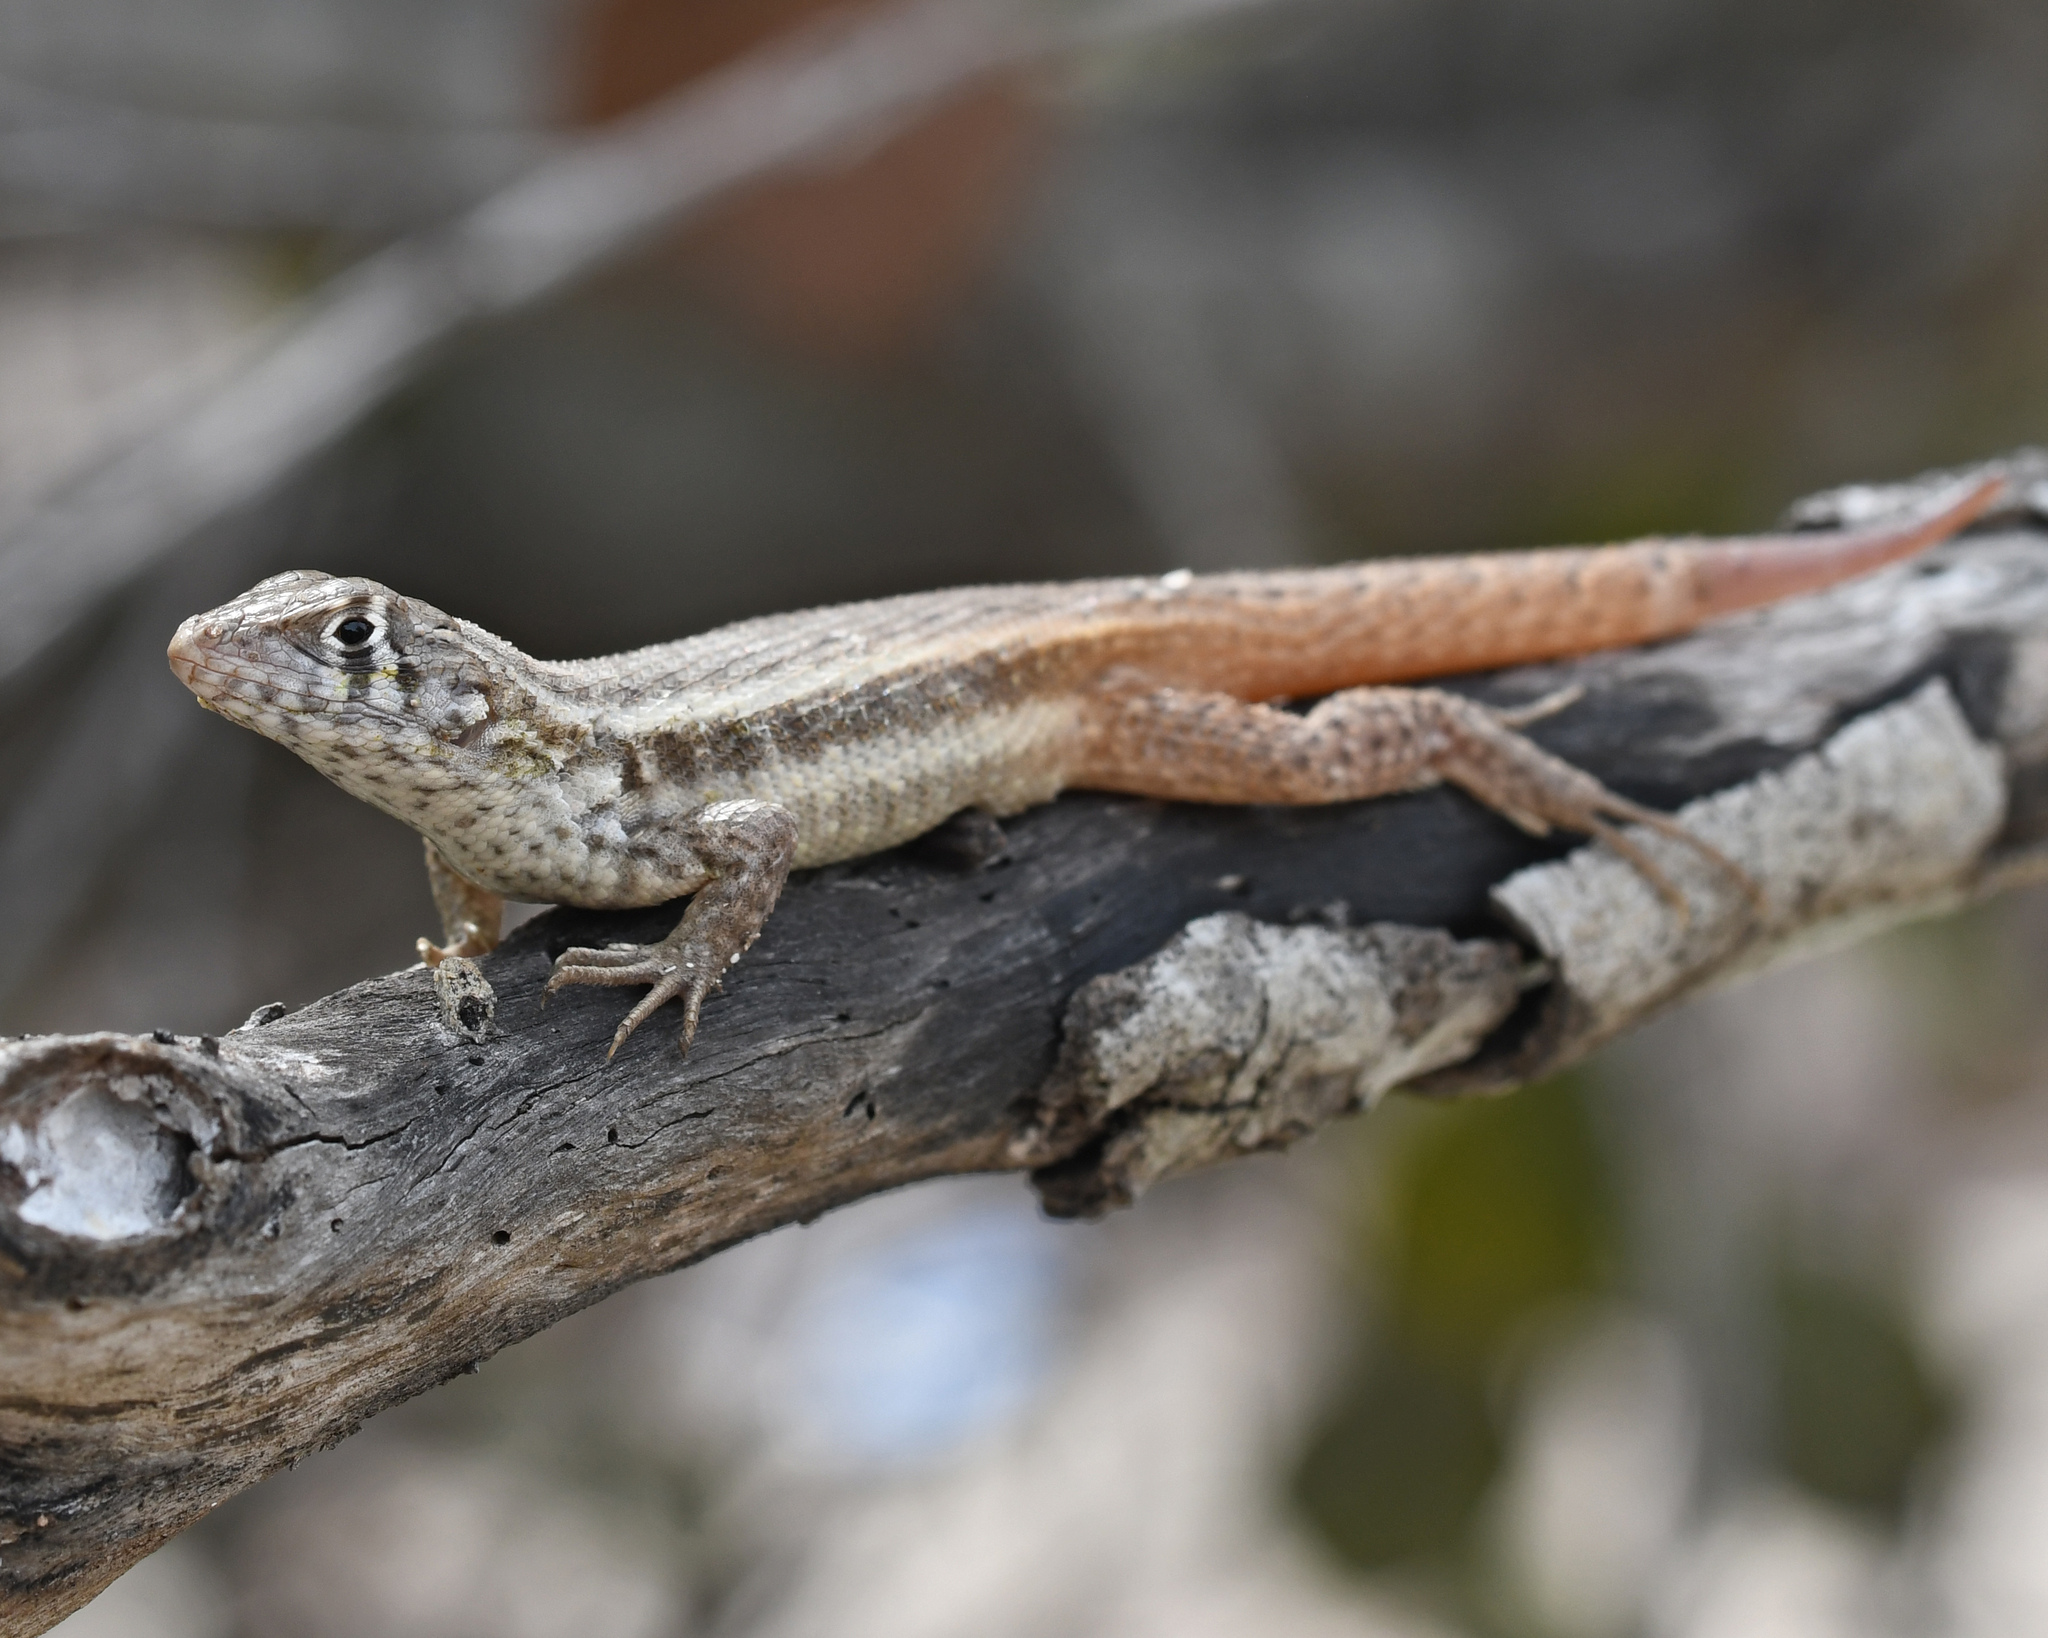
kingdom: Animalia
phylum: Chordata
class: Squamata
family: Leiocephalidae
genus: Leiocephalus
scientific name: Leiocephalus barahonensis
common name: Barahona curlytail lizard
